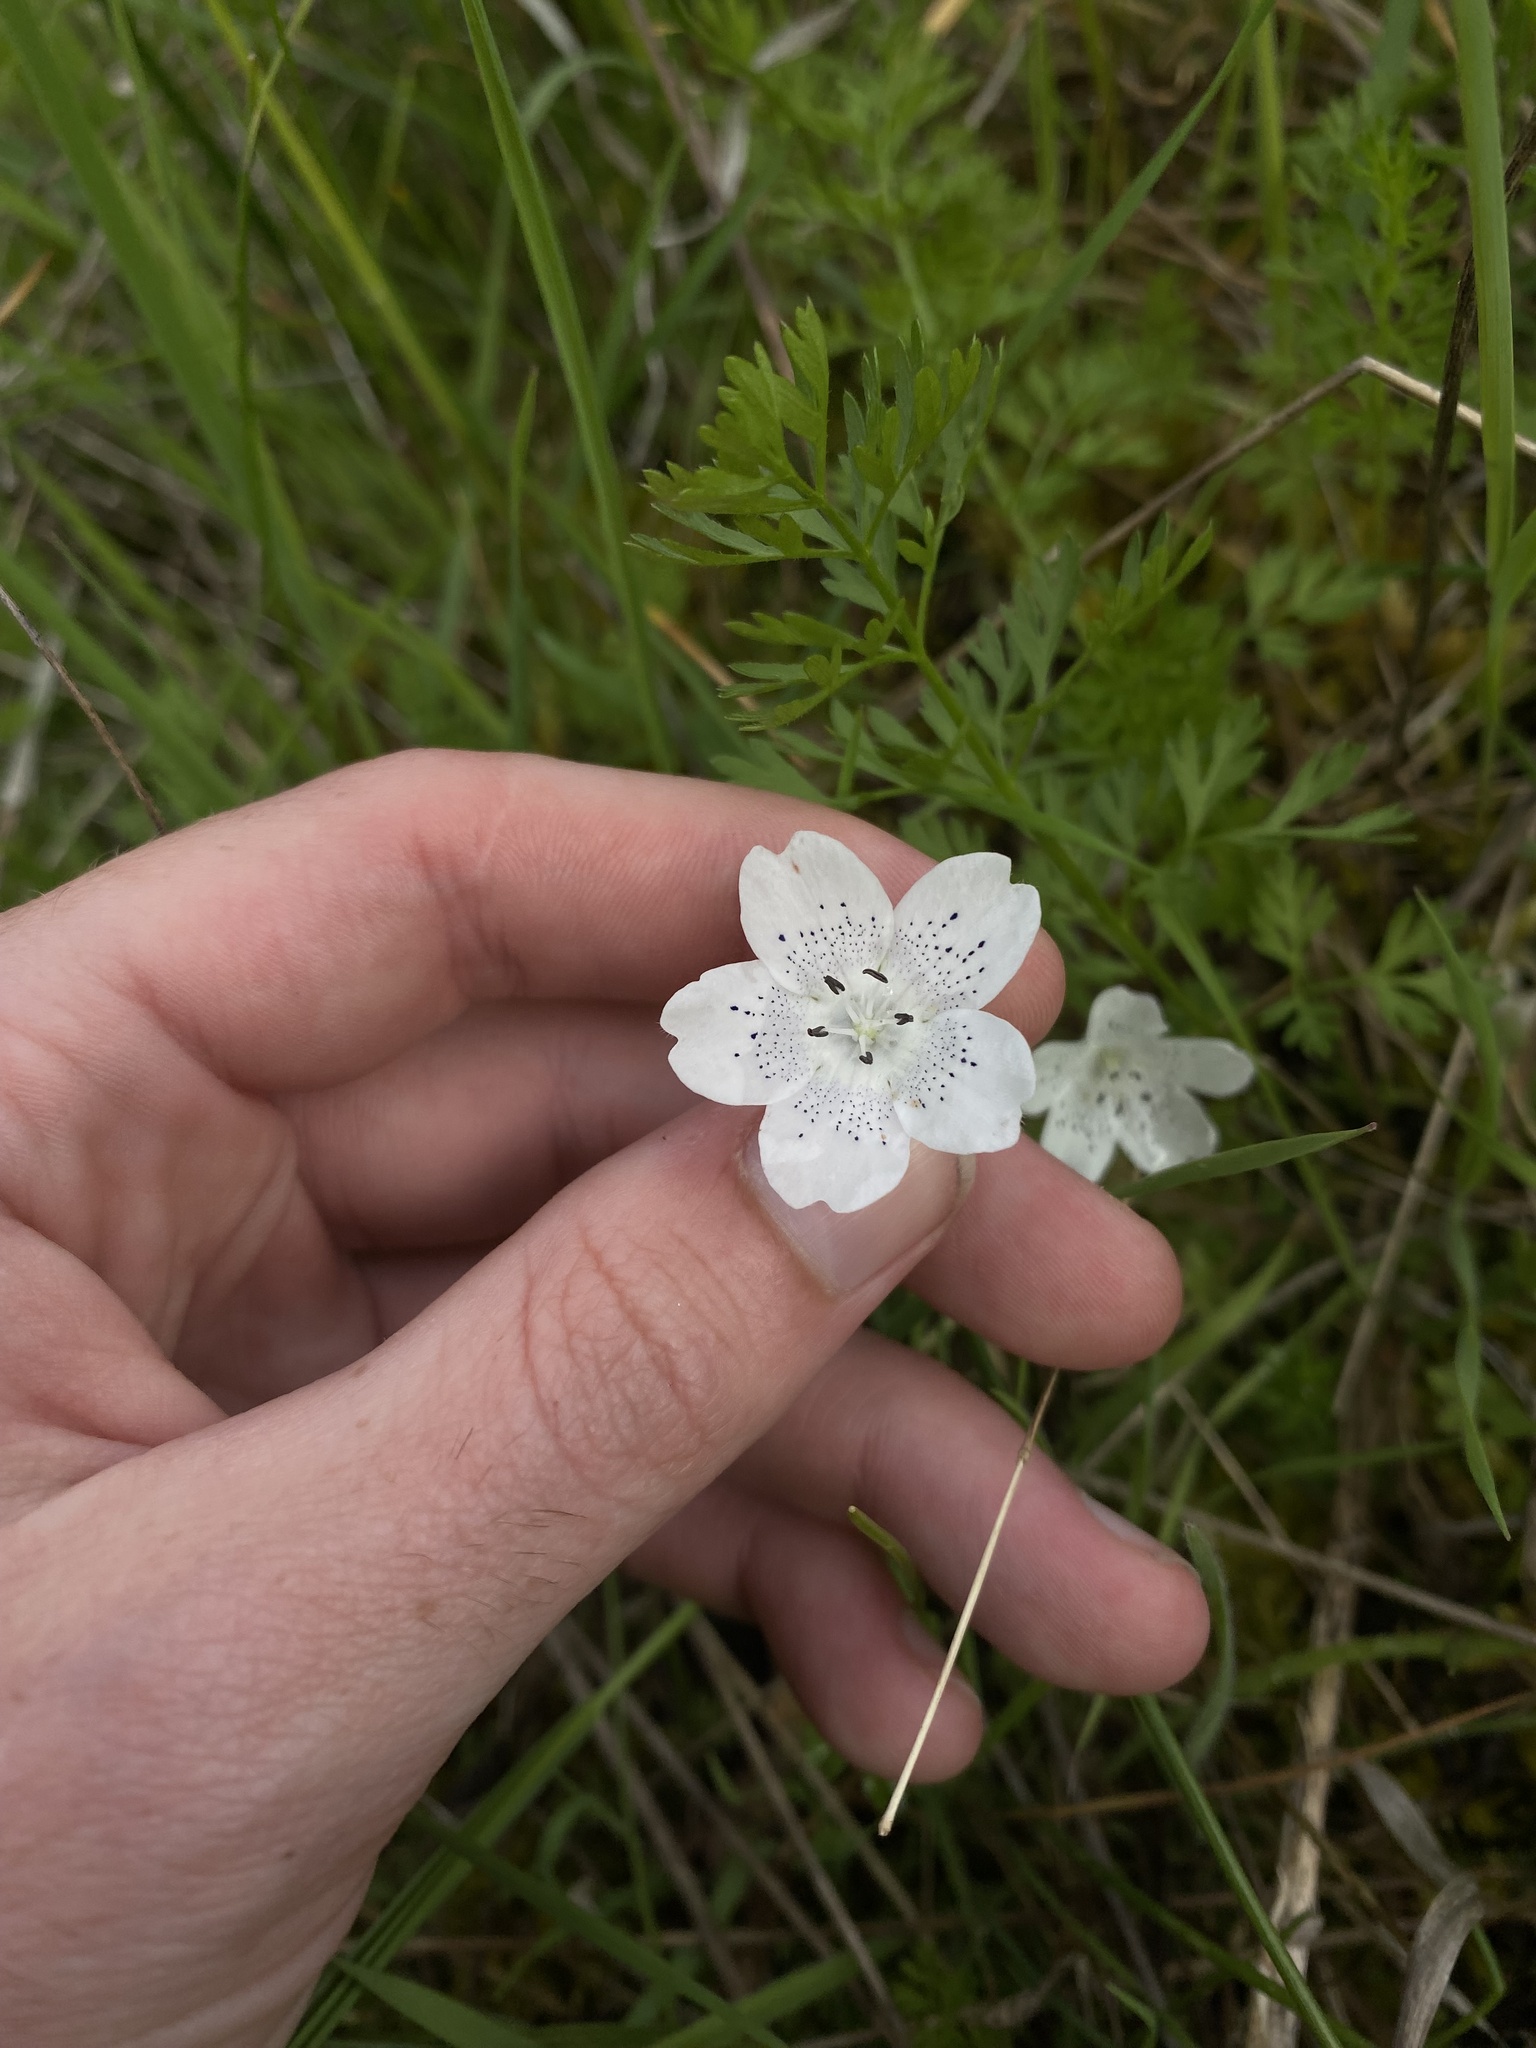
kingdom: Plantae
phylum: Tracheophyta
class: Magnoliopsida
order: Boraginales
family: Hydrophyllaceae
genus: Nemophila
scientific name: Nemophila menziesii
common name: Baby's-blue-eyes
